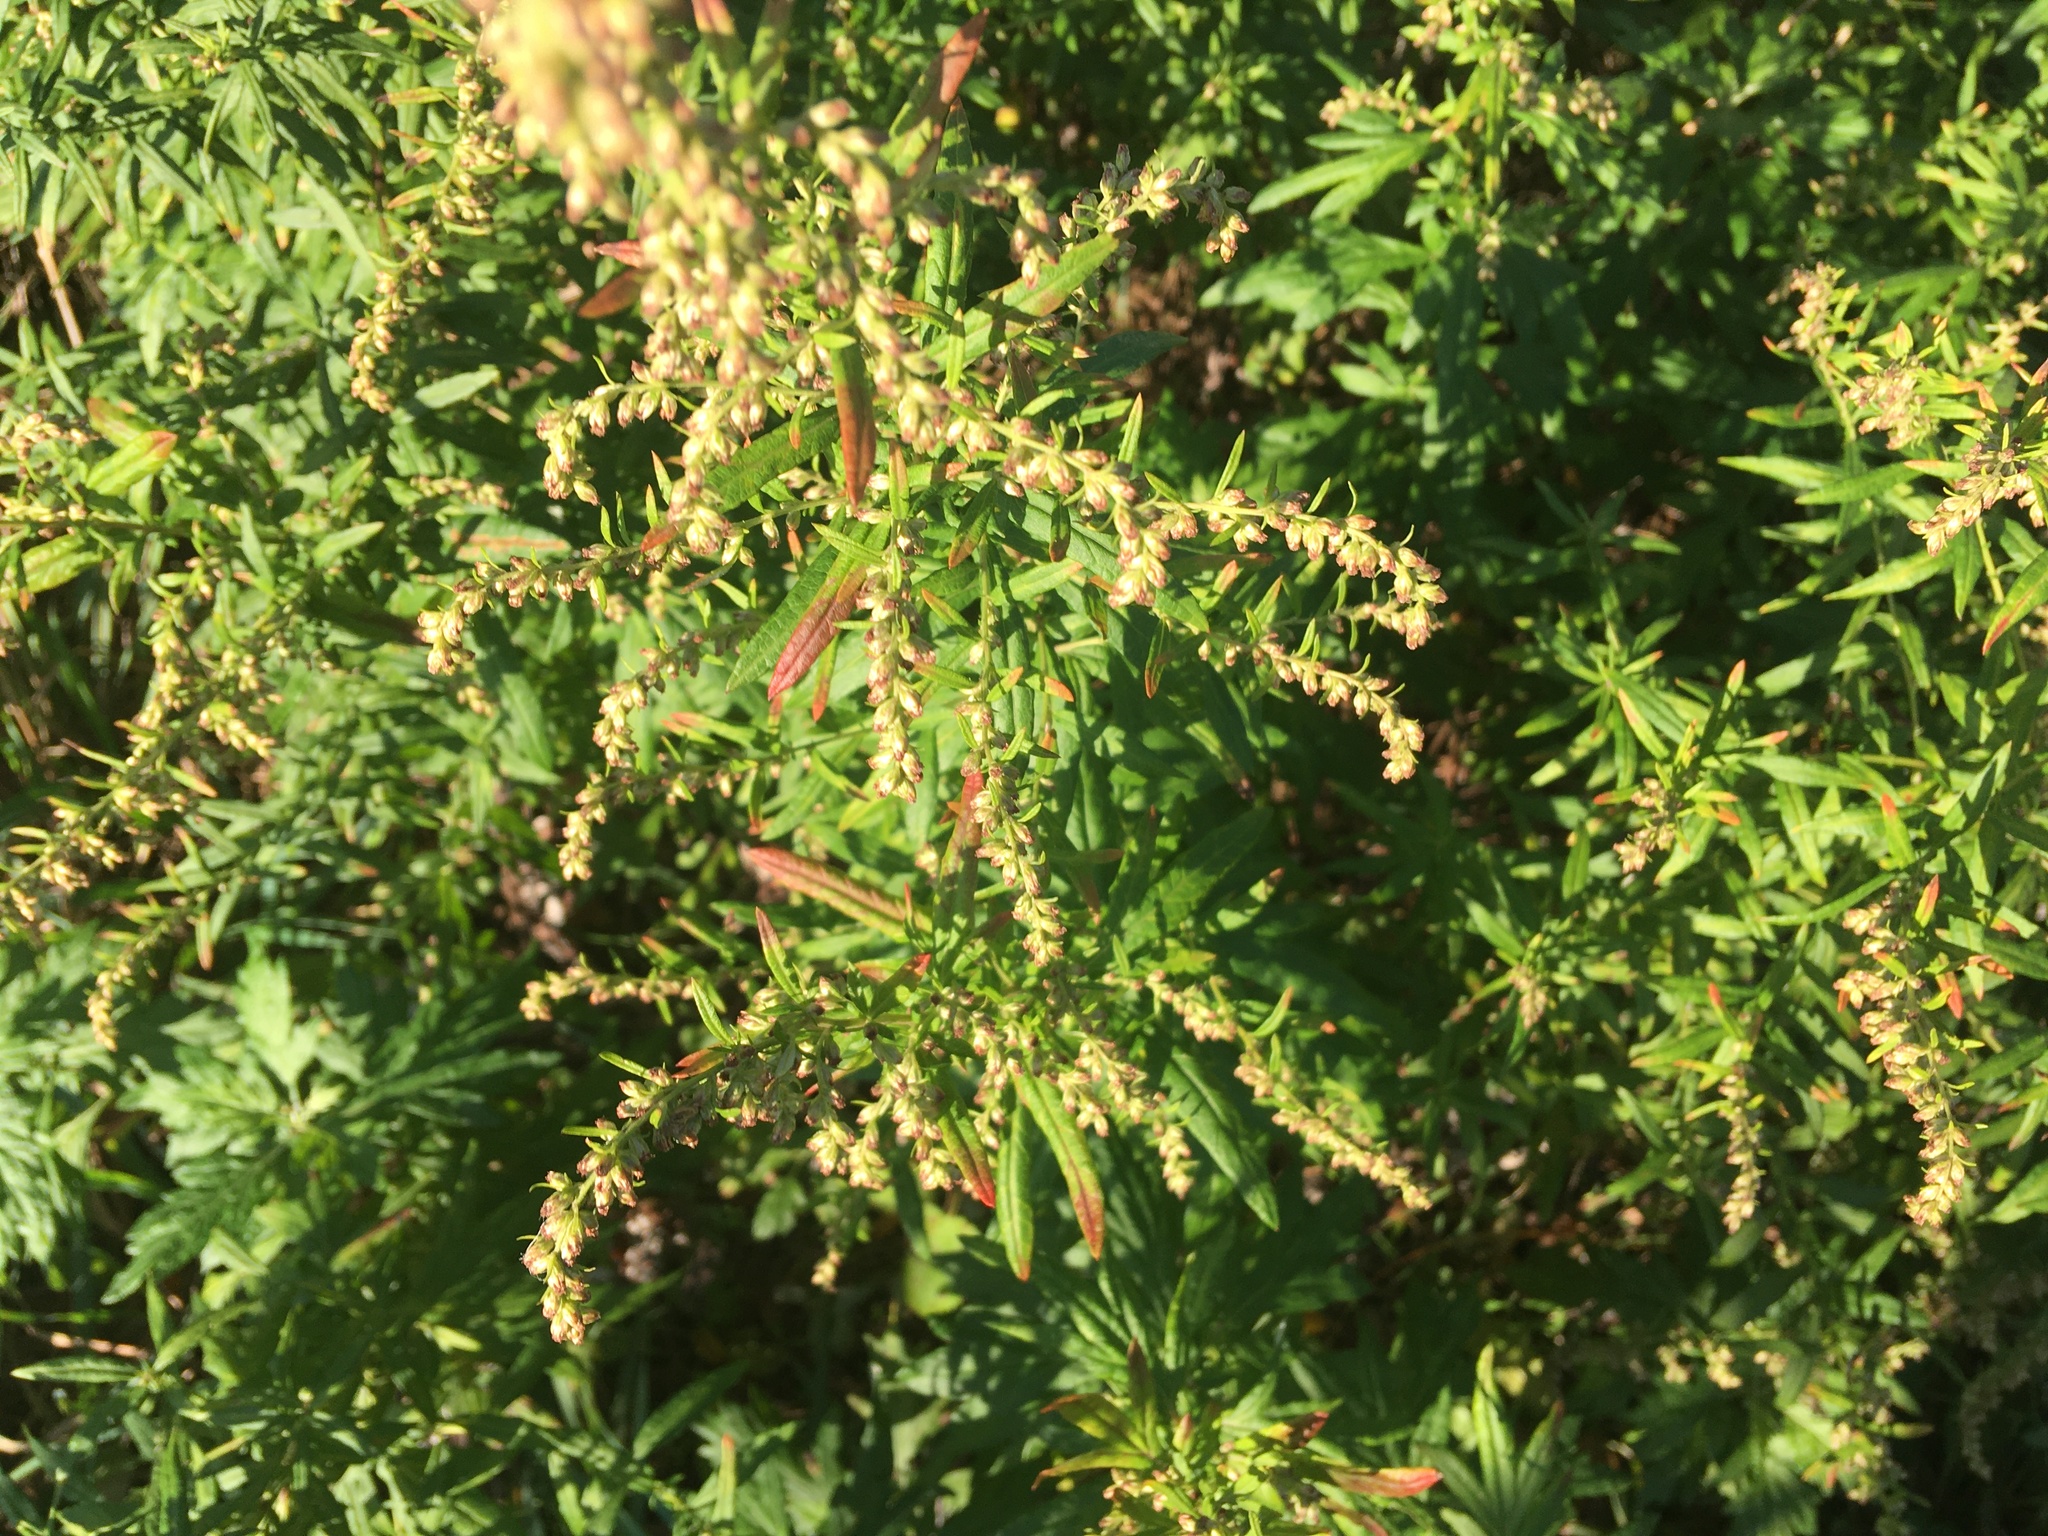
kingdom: Plantae
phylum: Tracheophyta
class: Magnoliopsida
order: Asterales
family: Asteraceae
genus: Artemisia
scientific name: Artemisia vulgaris
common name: Mugwort
